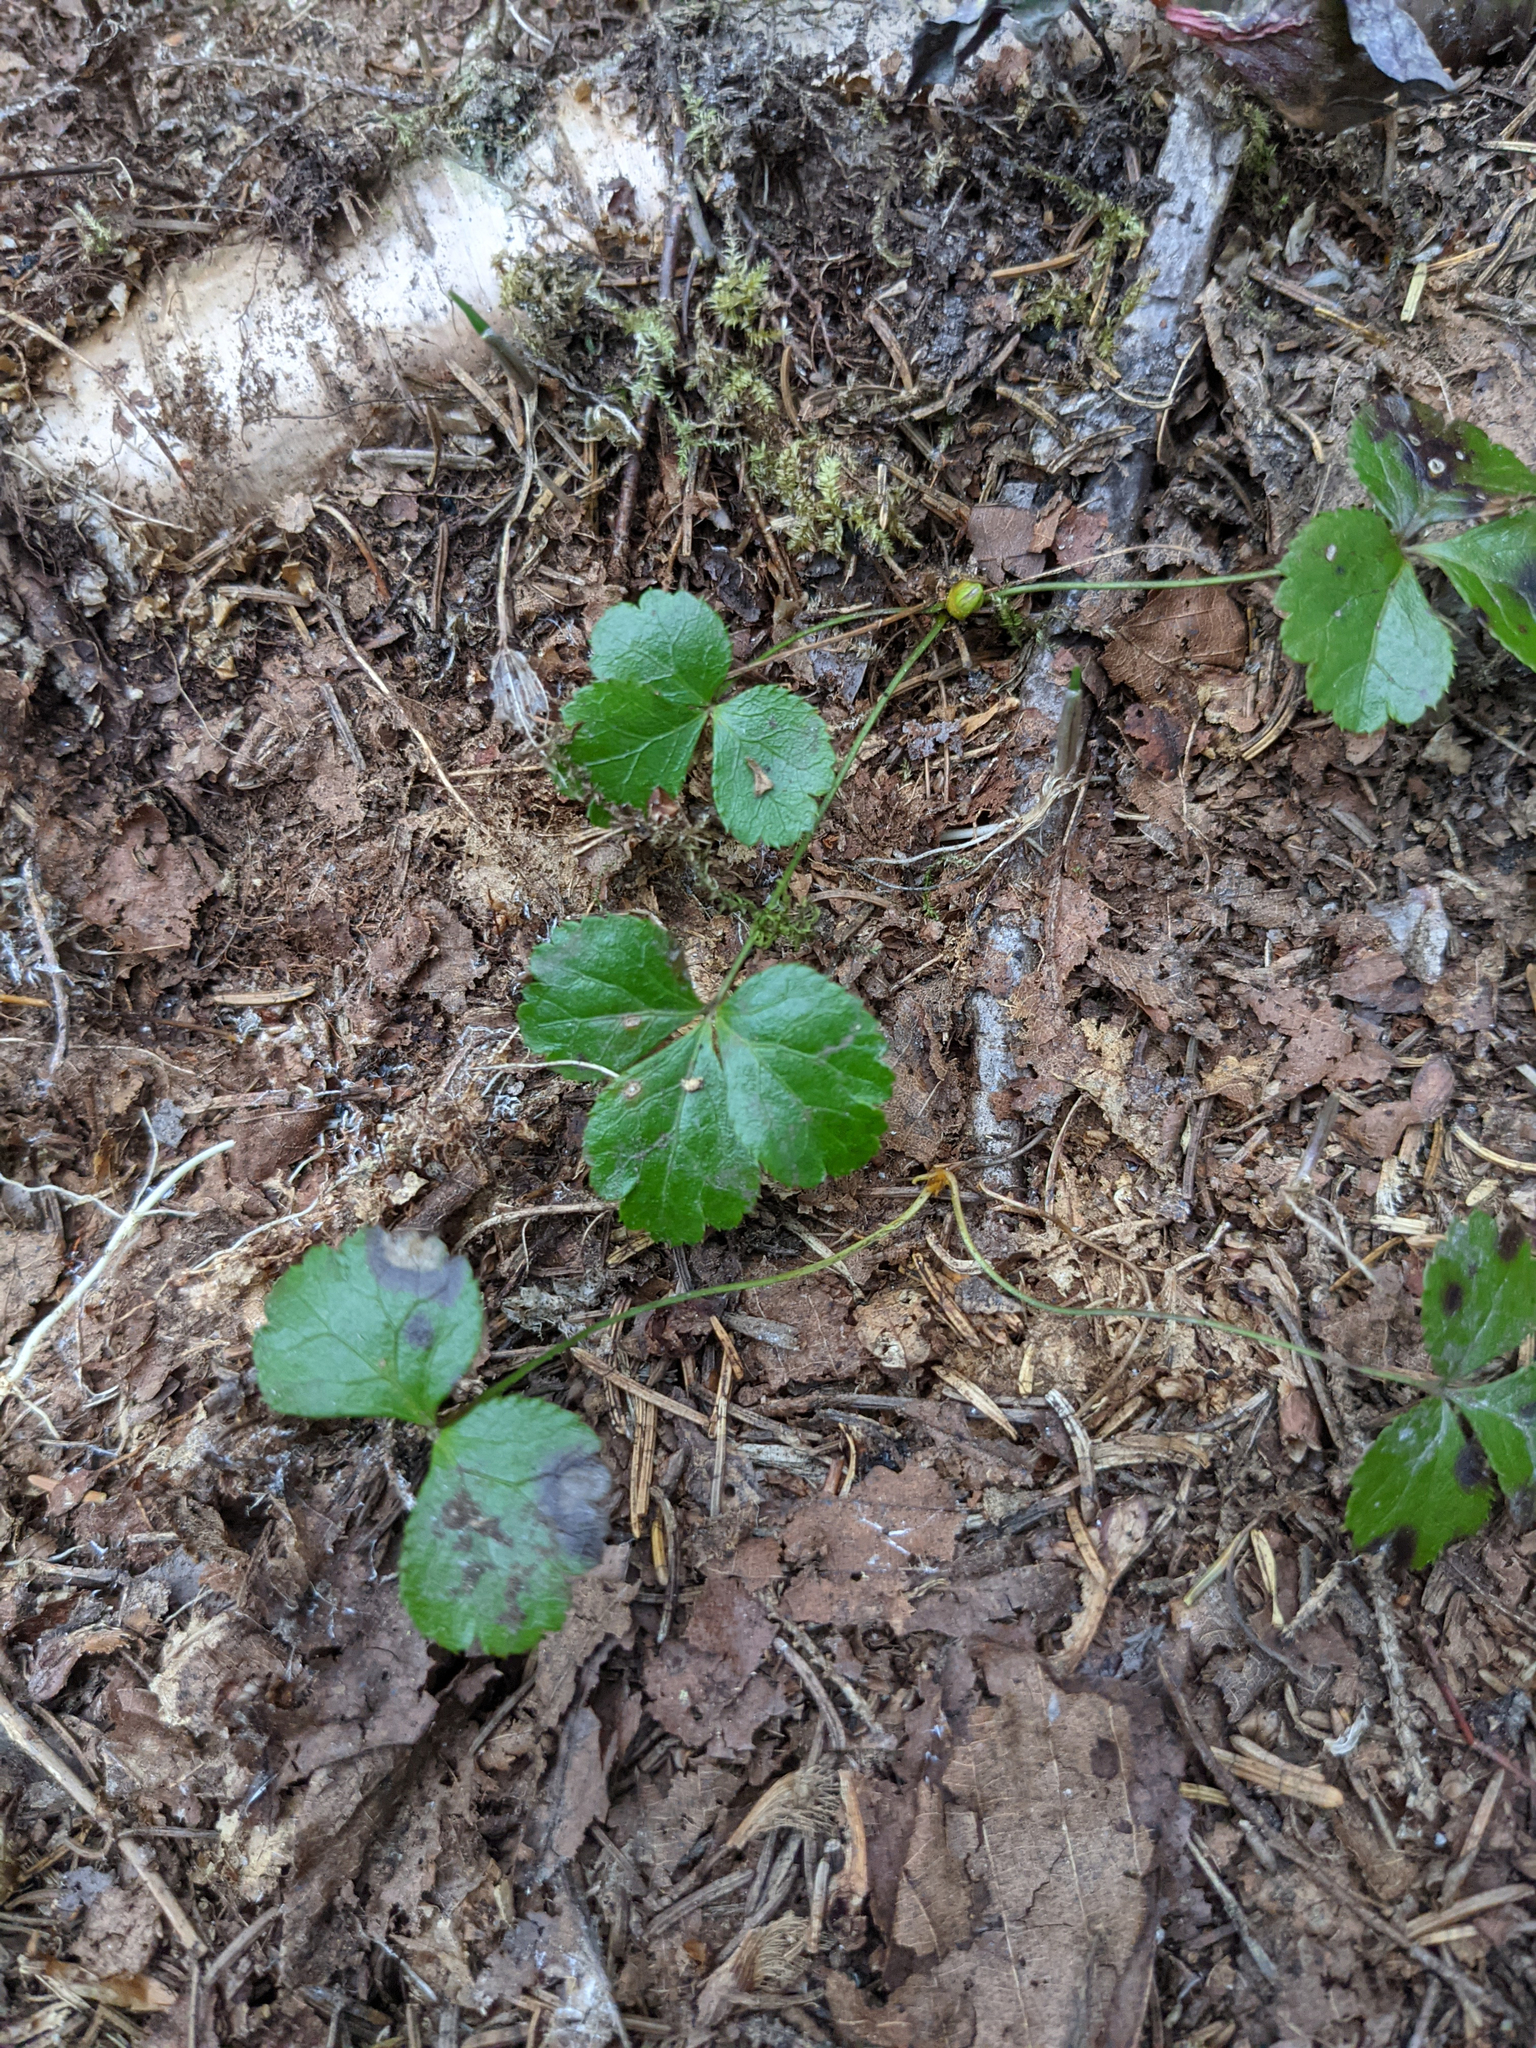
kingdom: Plantae
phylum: Tracheophyta
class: Magnoliopsida
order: Ranunculales
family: Ranunculaceae
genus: Coptis
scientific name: Coptis trifolia
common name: Canker-root
